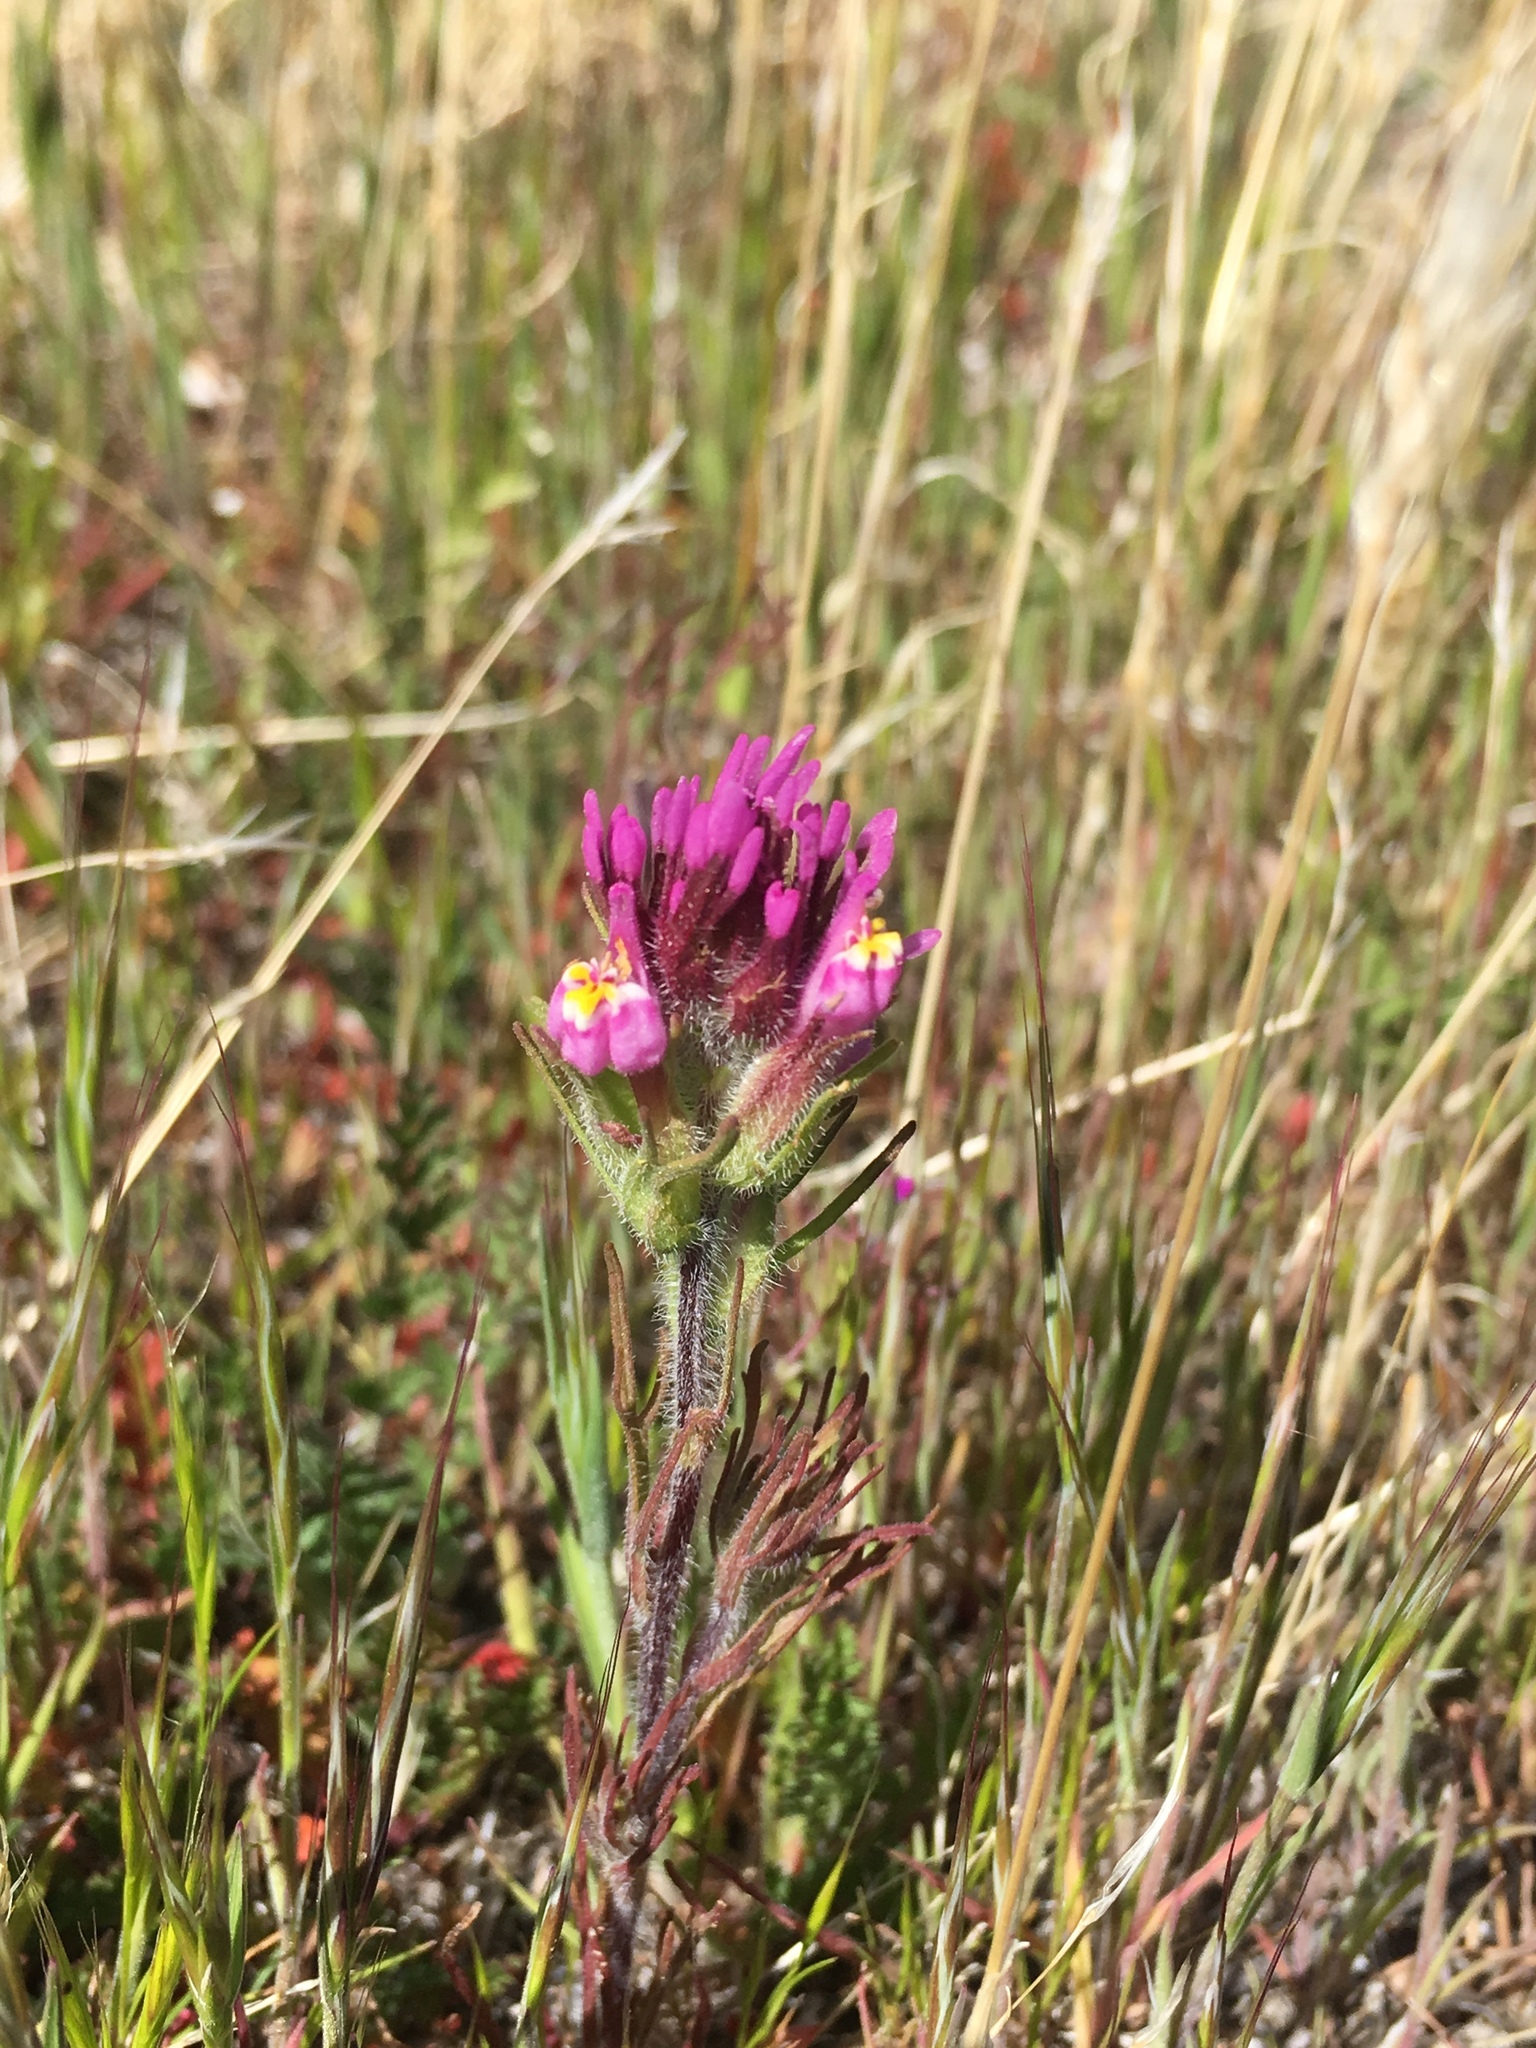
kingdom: Plantae
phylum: Tracheophyta
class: Magnoliopsida
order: Lamiales
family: Orobanchaceae
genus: Castilleja
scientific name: Castilleja exserta
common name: Purple owl-clover
